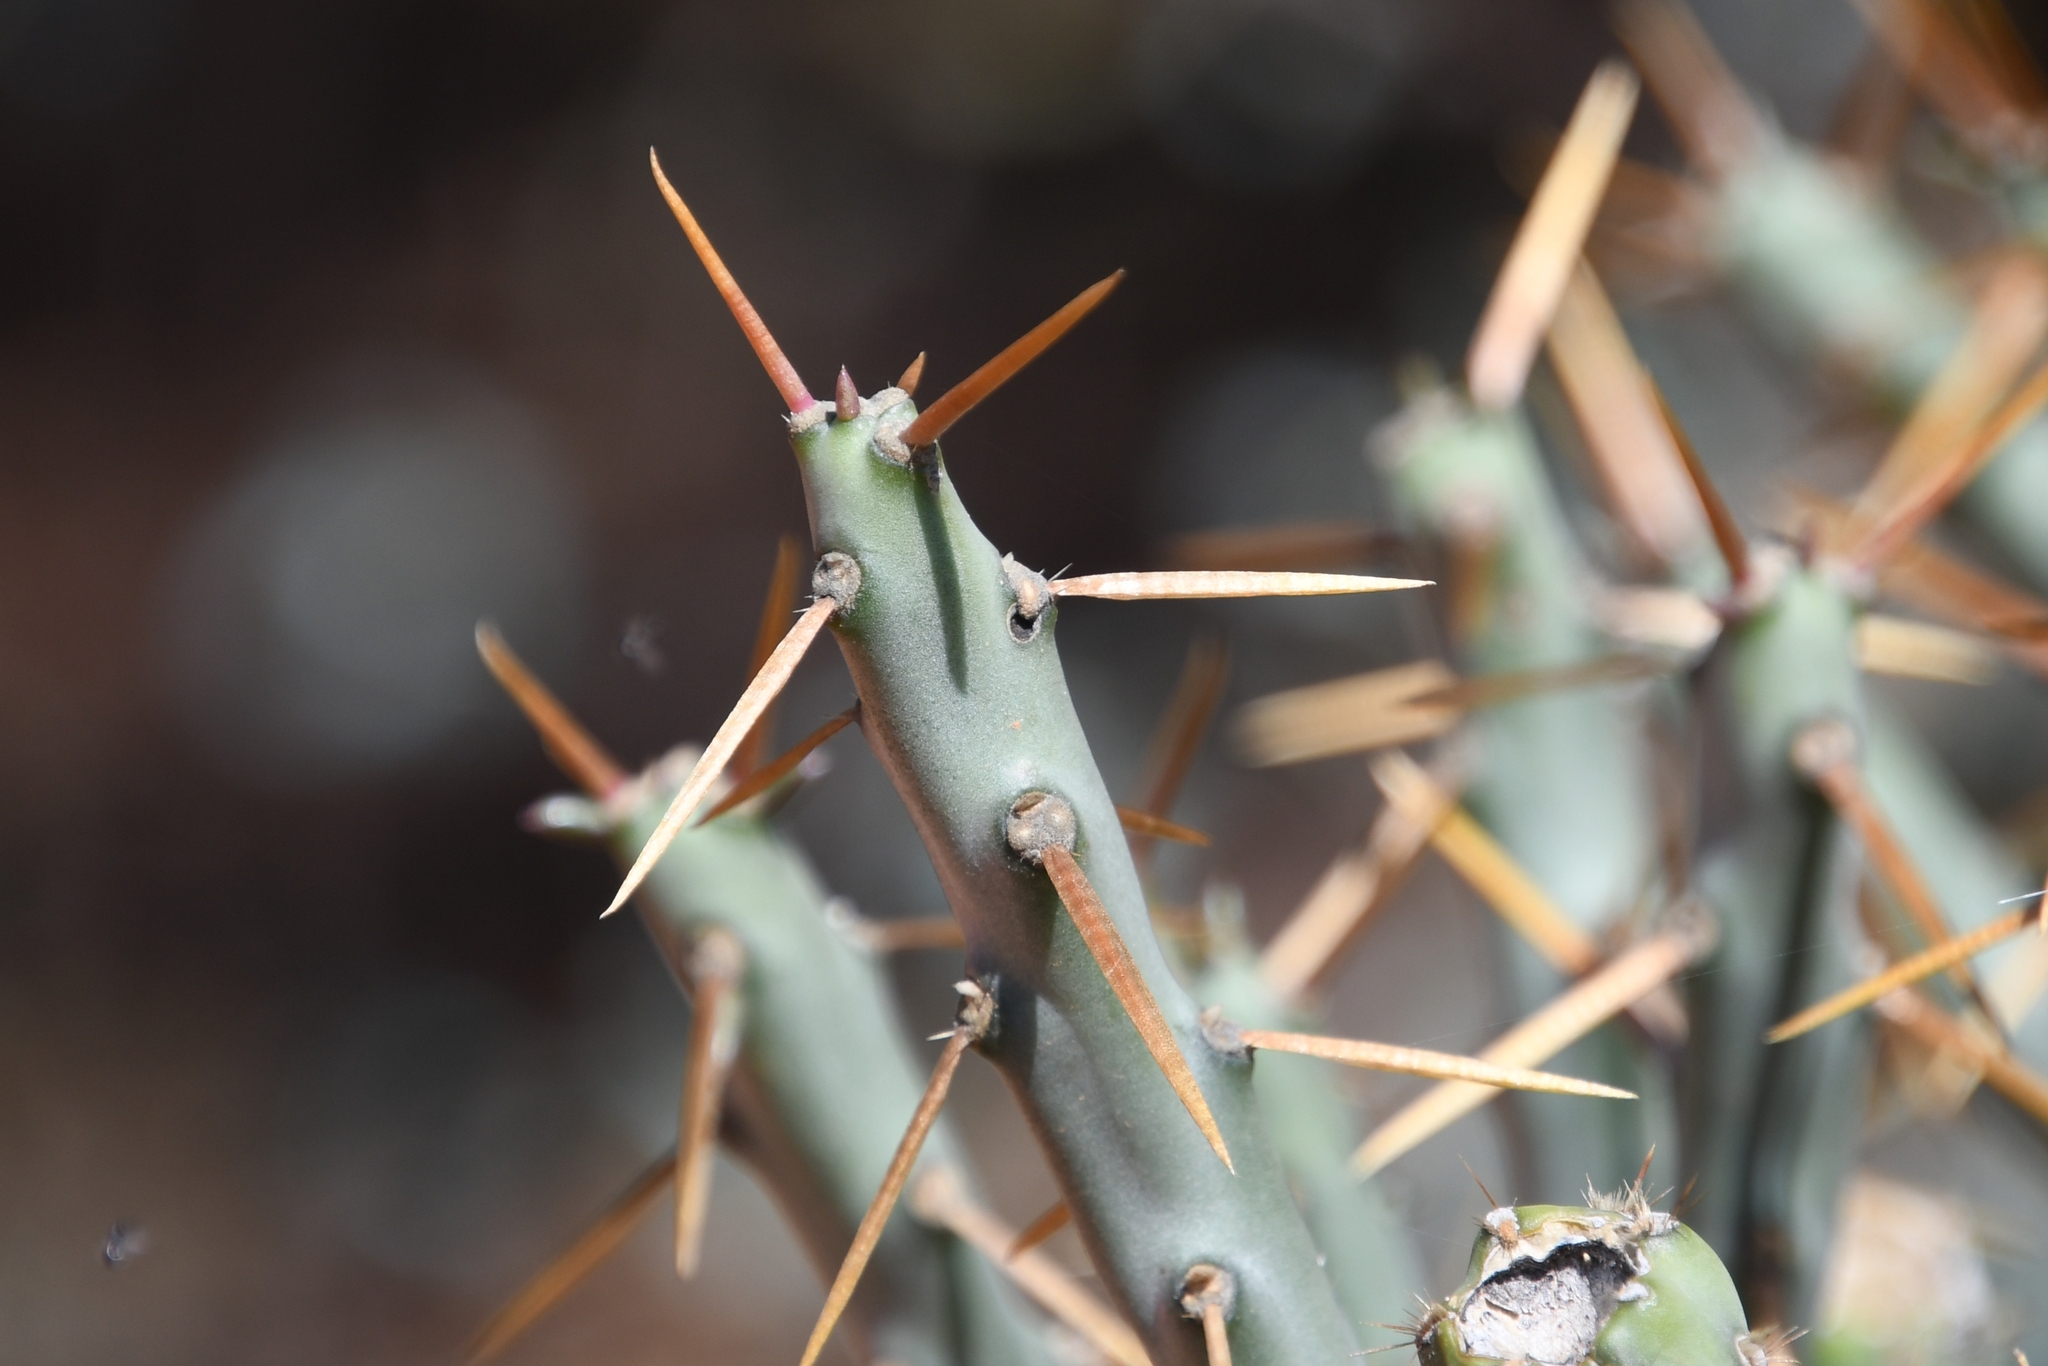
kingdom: Plantae
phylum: Tracheophyta
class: Magnoliopsida
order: Caryophyllales
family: Cactaceae
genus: Cylindropuntia
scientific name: Cylindropuntia arbuscula
